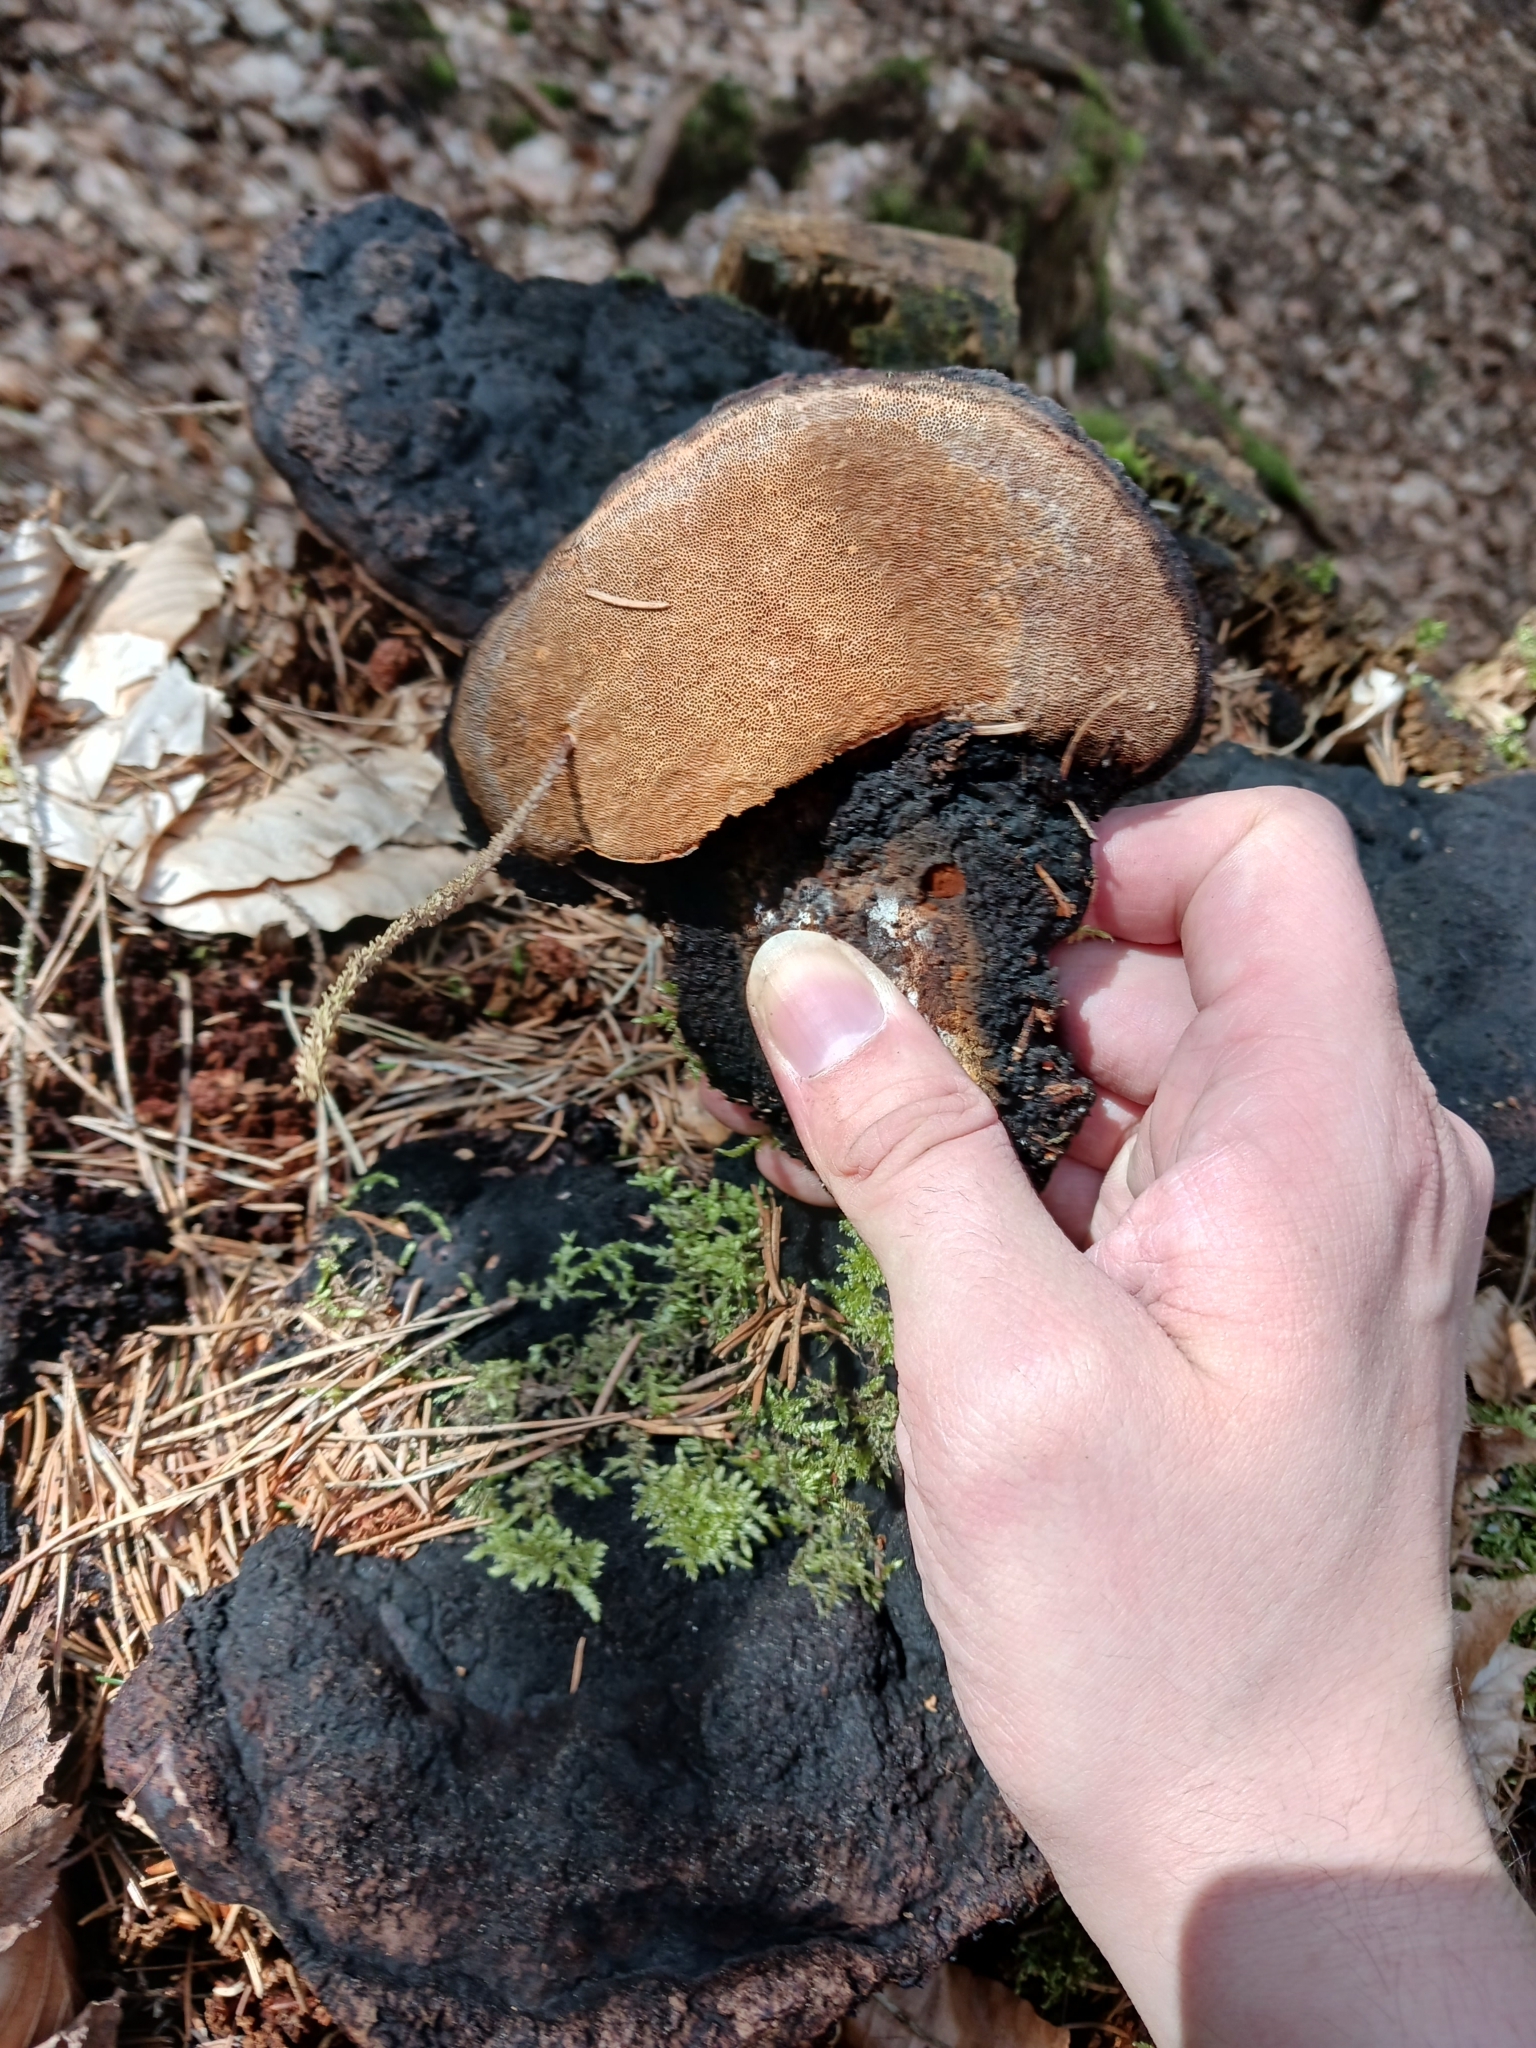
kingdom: Fungi
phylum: Basidiomycota
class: Agaricomycetes
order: Gloeophyllales
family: Gloeophyllaceae
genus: Gloeophyllum
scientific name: Gloeophyllum odoratum
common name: Anise mazegill
